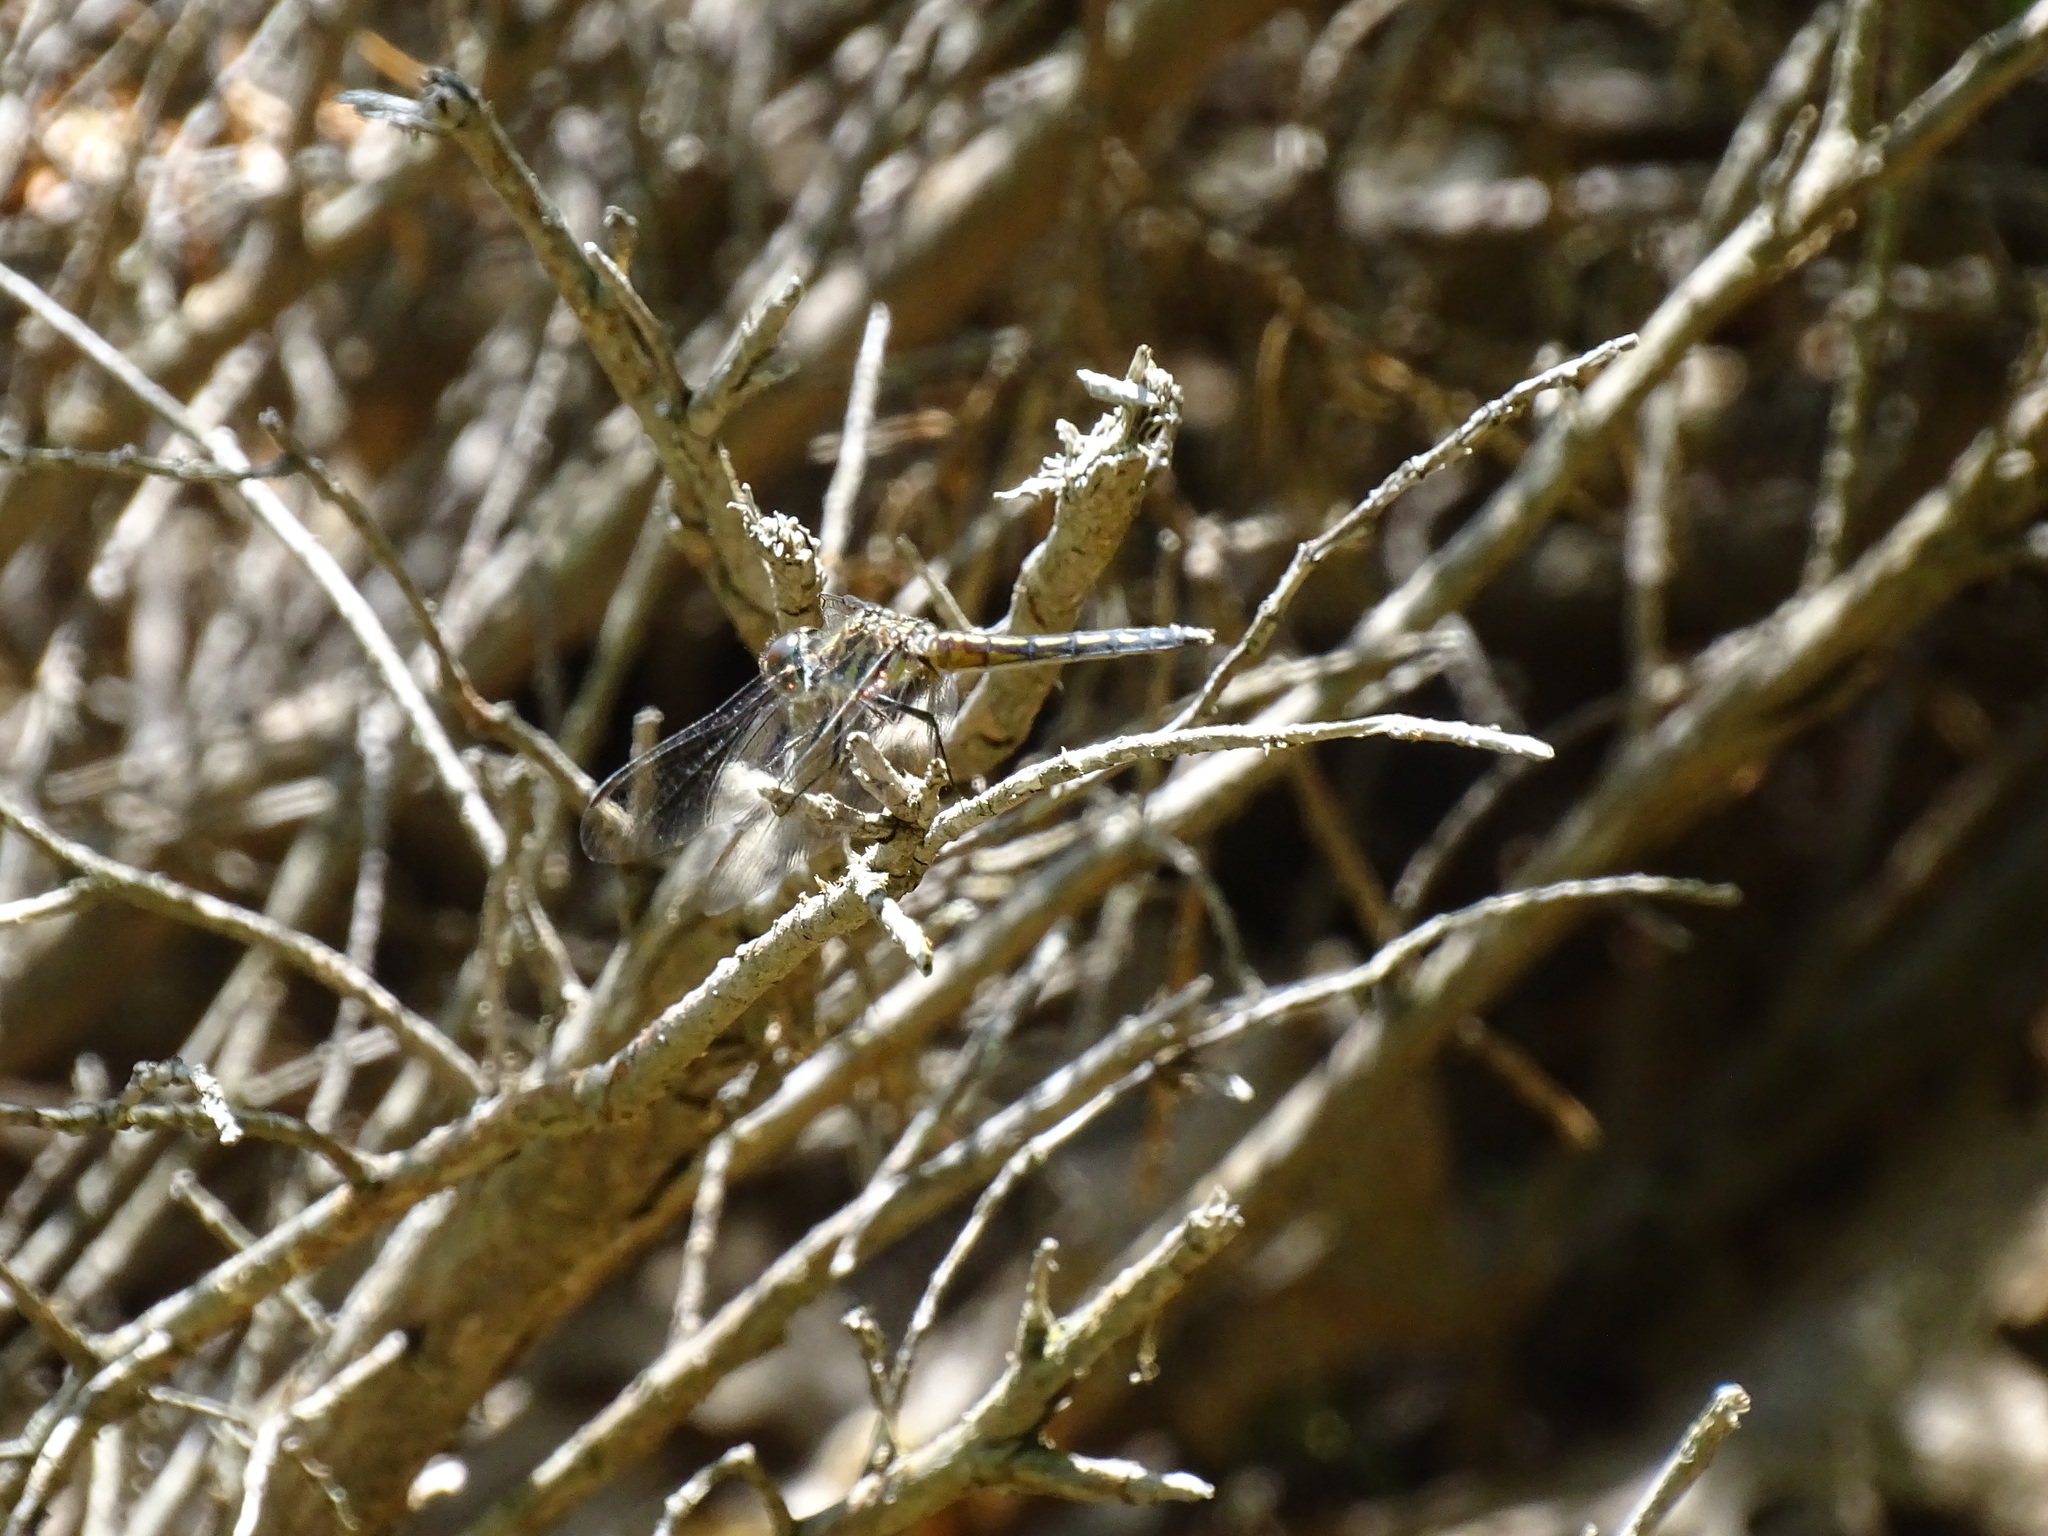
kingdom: Animalia
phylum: Arthropoda
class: Insecta
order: Odonata
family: Libellulidae
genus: Pachydiplax
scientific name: Pachydiplax longipennis
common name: Blue dasher
